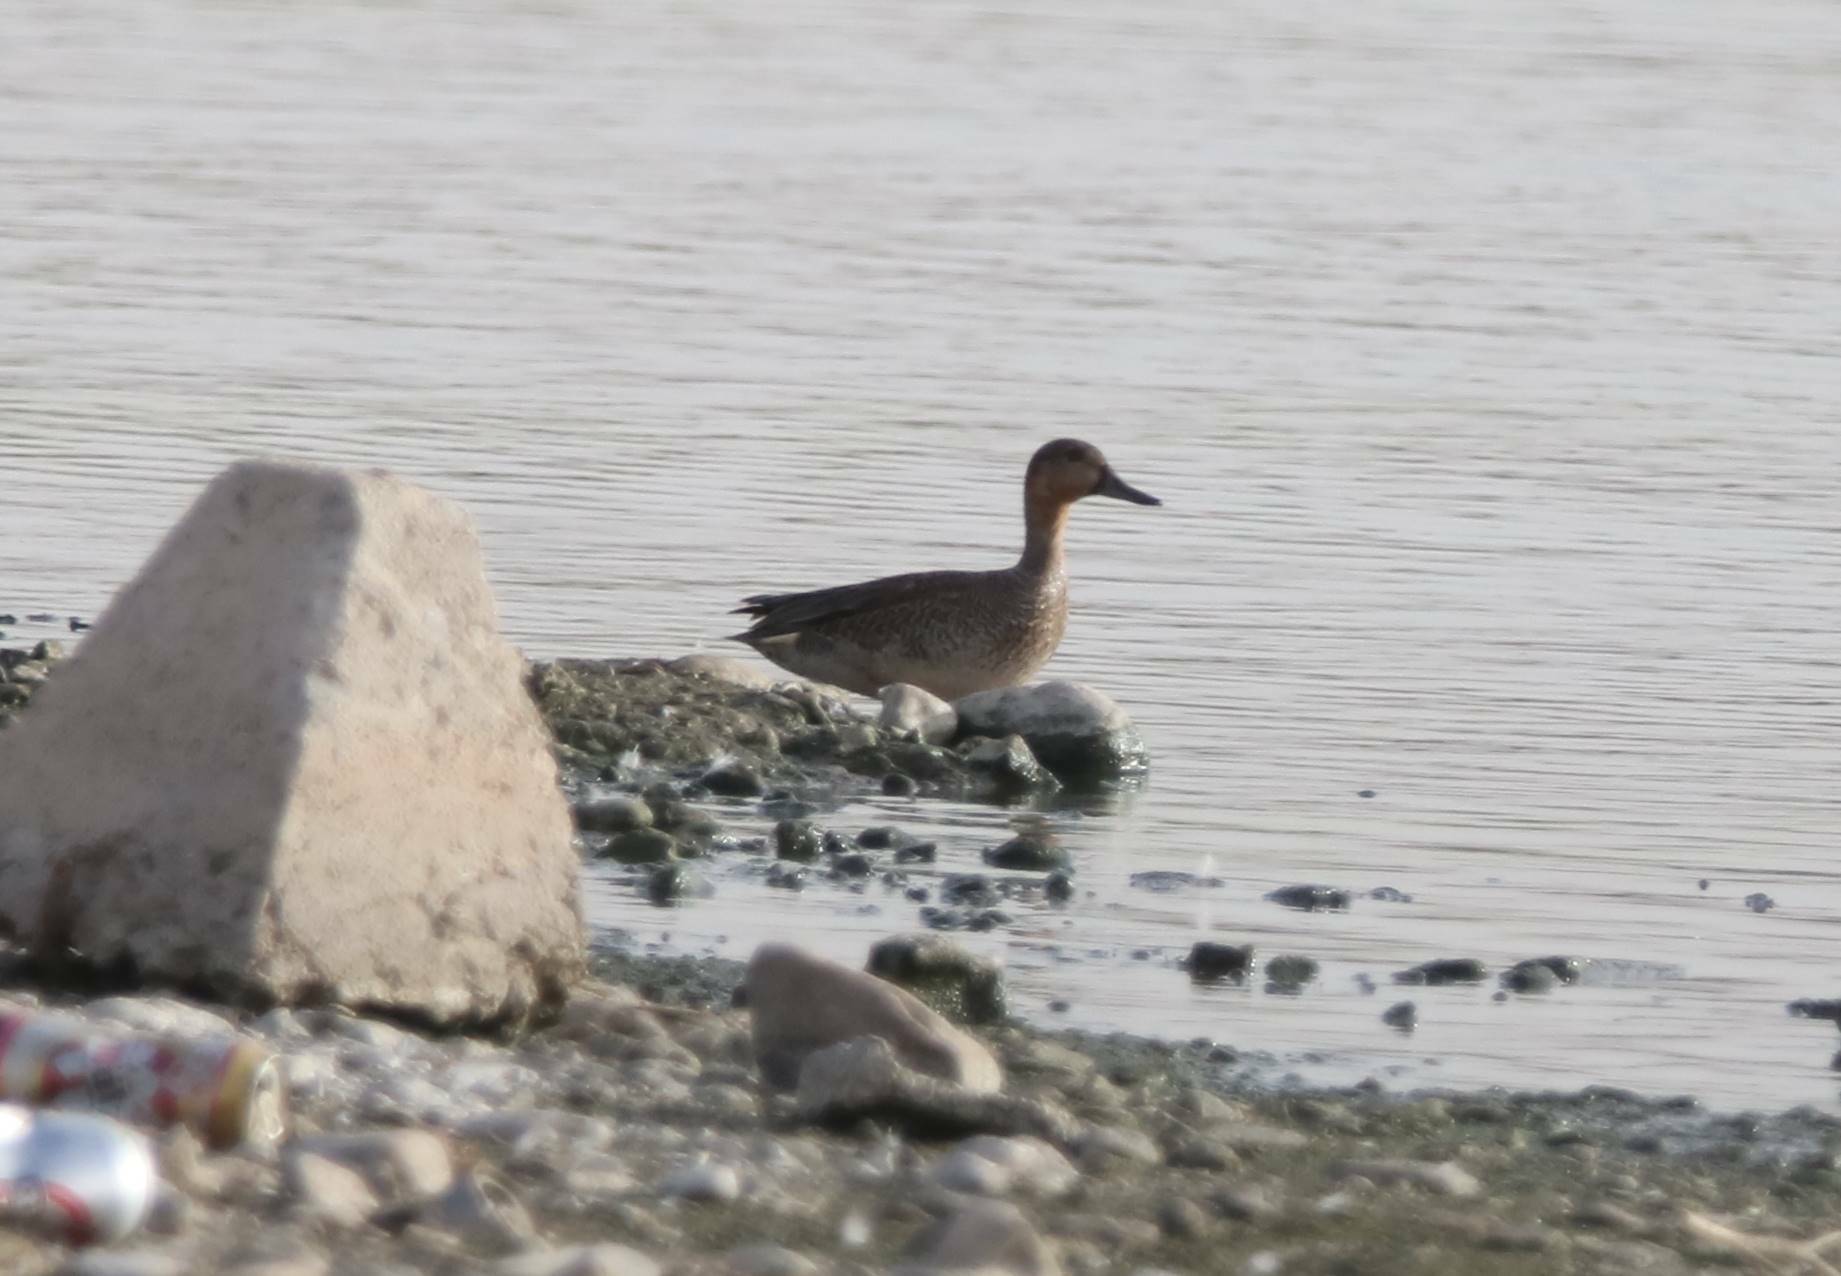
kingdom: Animalia
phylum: Chordata
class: Aves
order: Anseriformes
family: Anatidae
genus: Anas
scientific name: Anas crecca
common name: Eurasian teal
